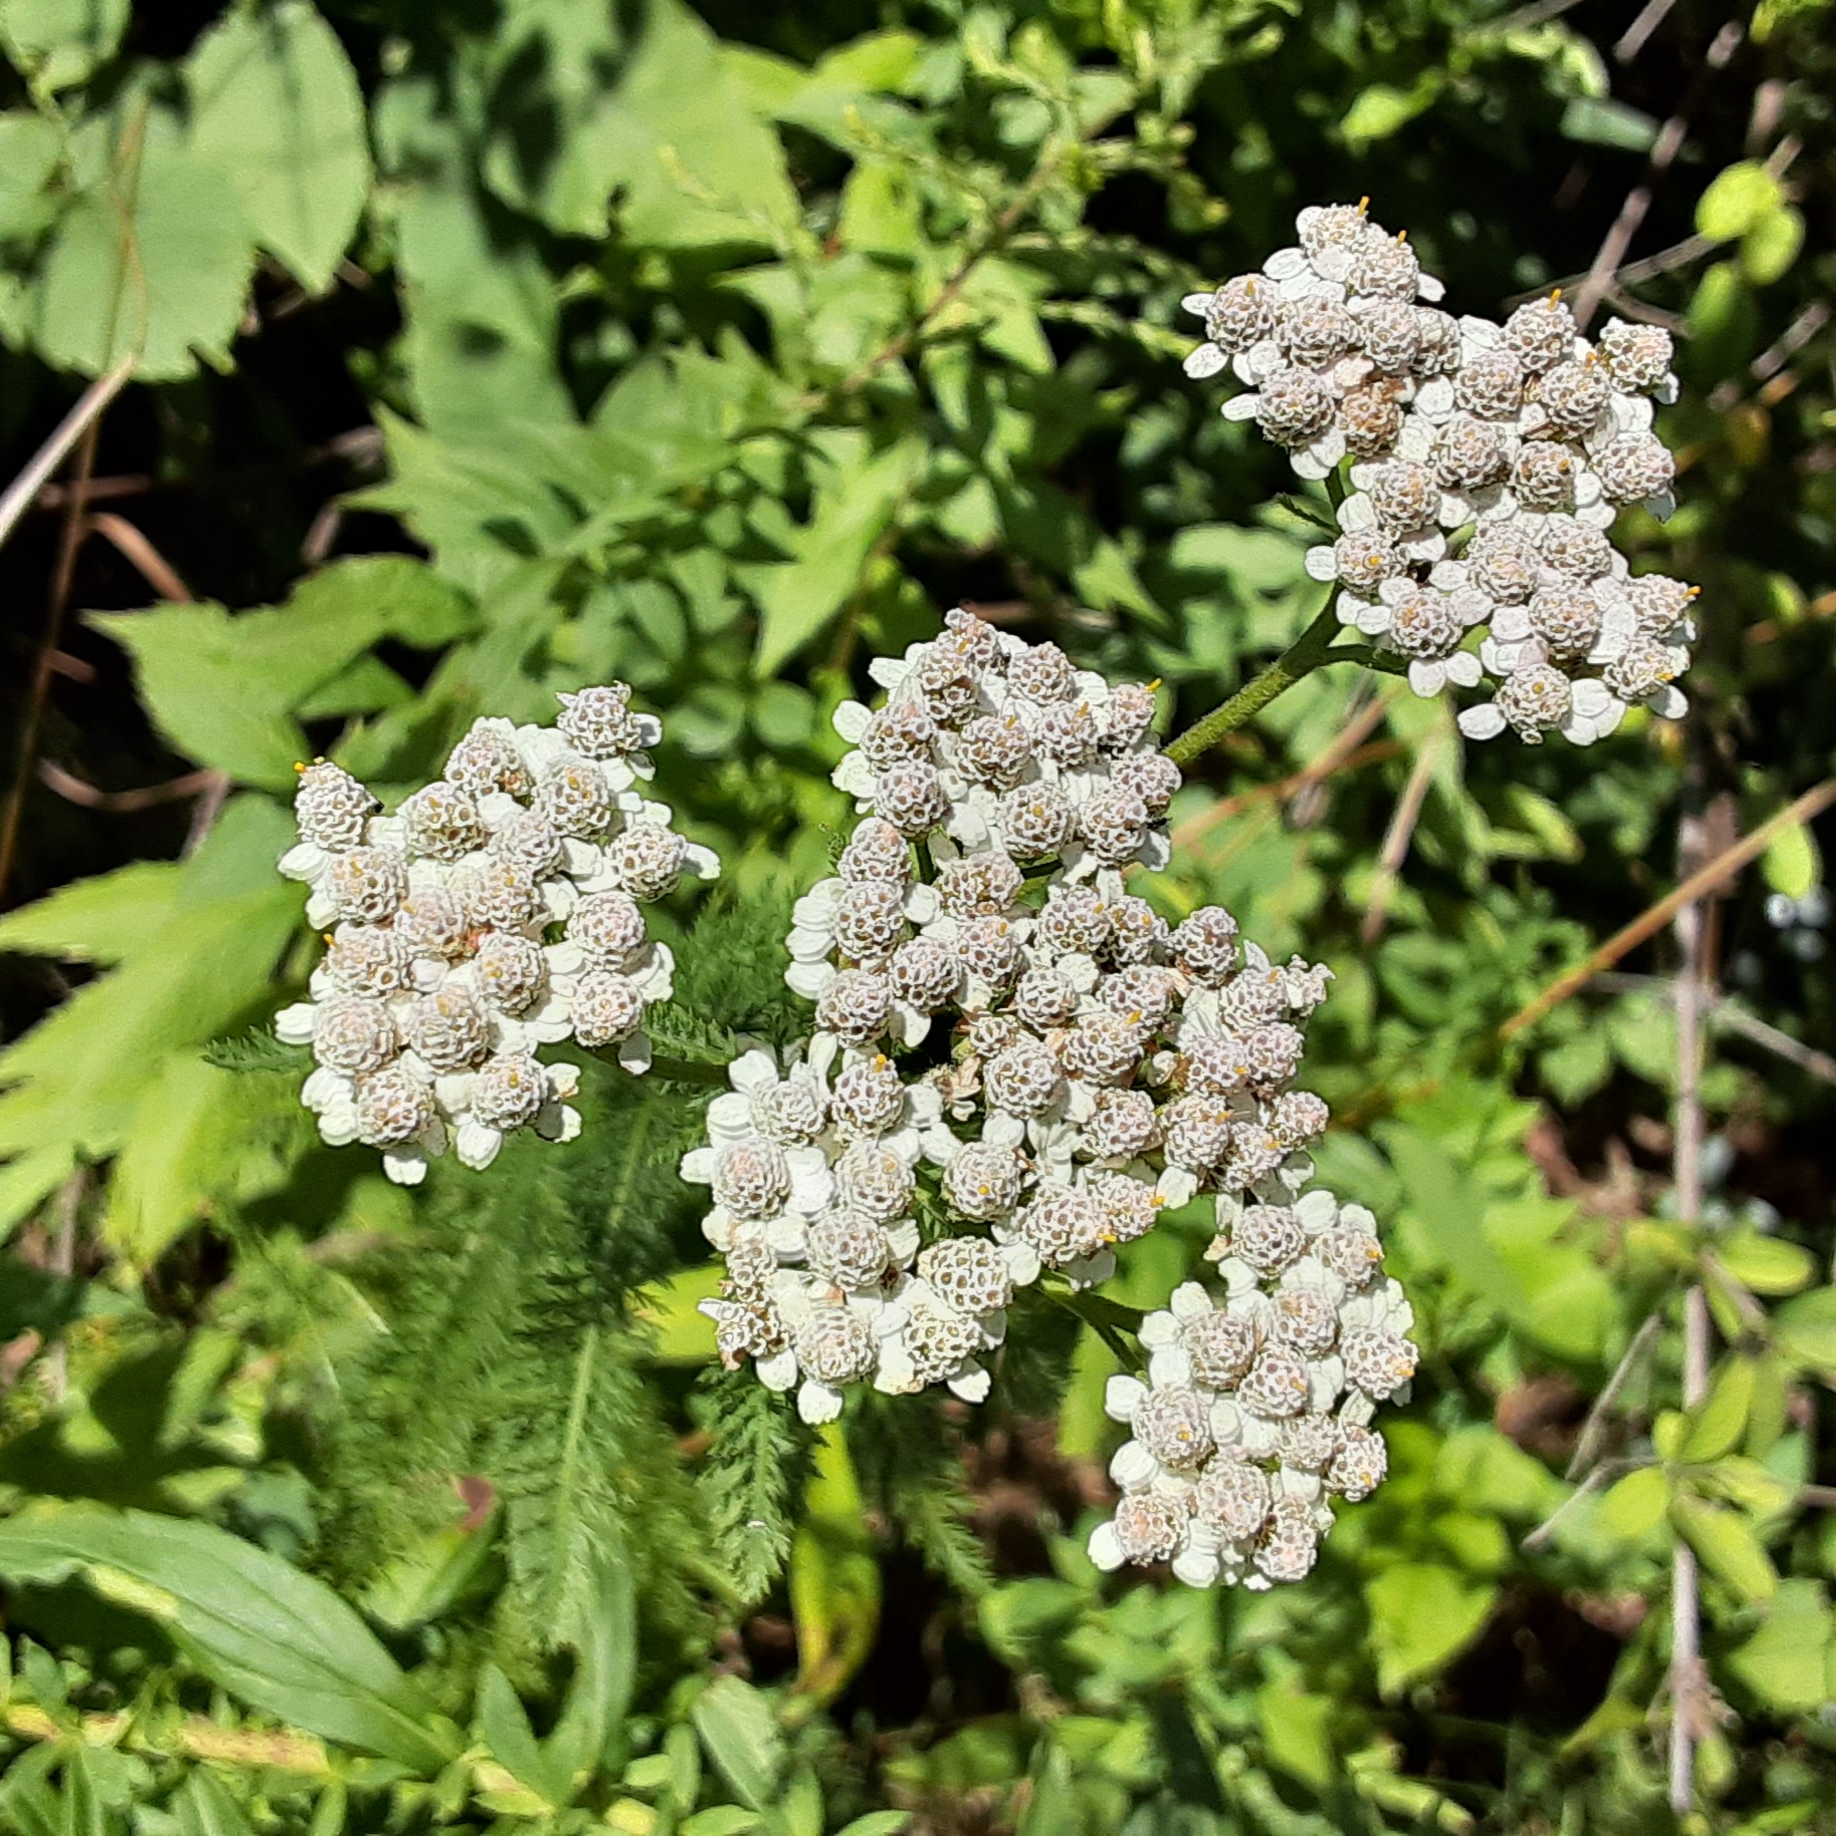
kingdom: Plantae
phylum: Tracheophyta
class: Magnoliopsida
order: Asterales
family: Asteraceae
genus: Achillea
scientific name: Achillea millefolium
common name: Yarrow
